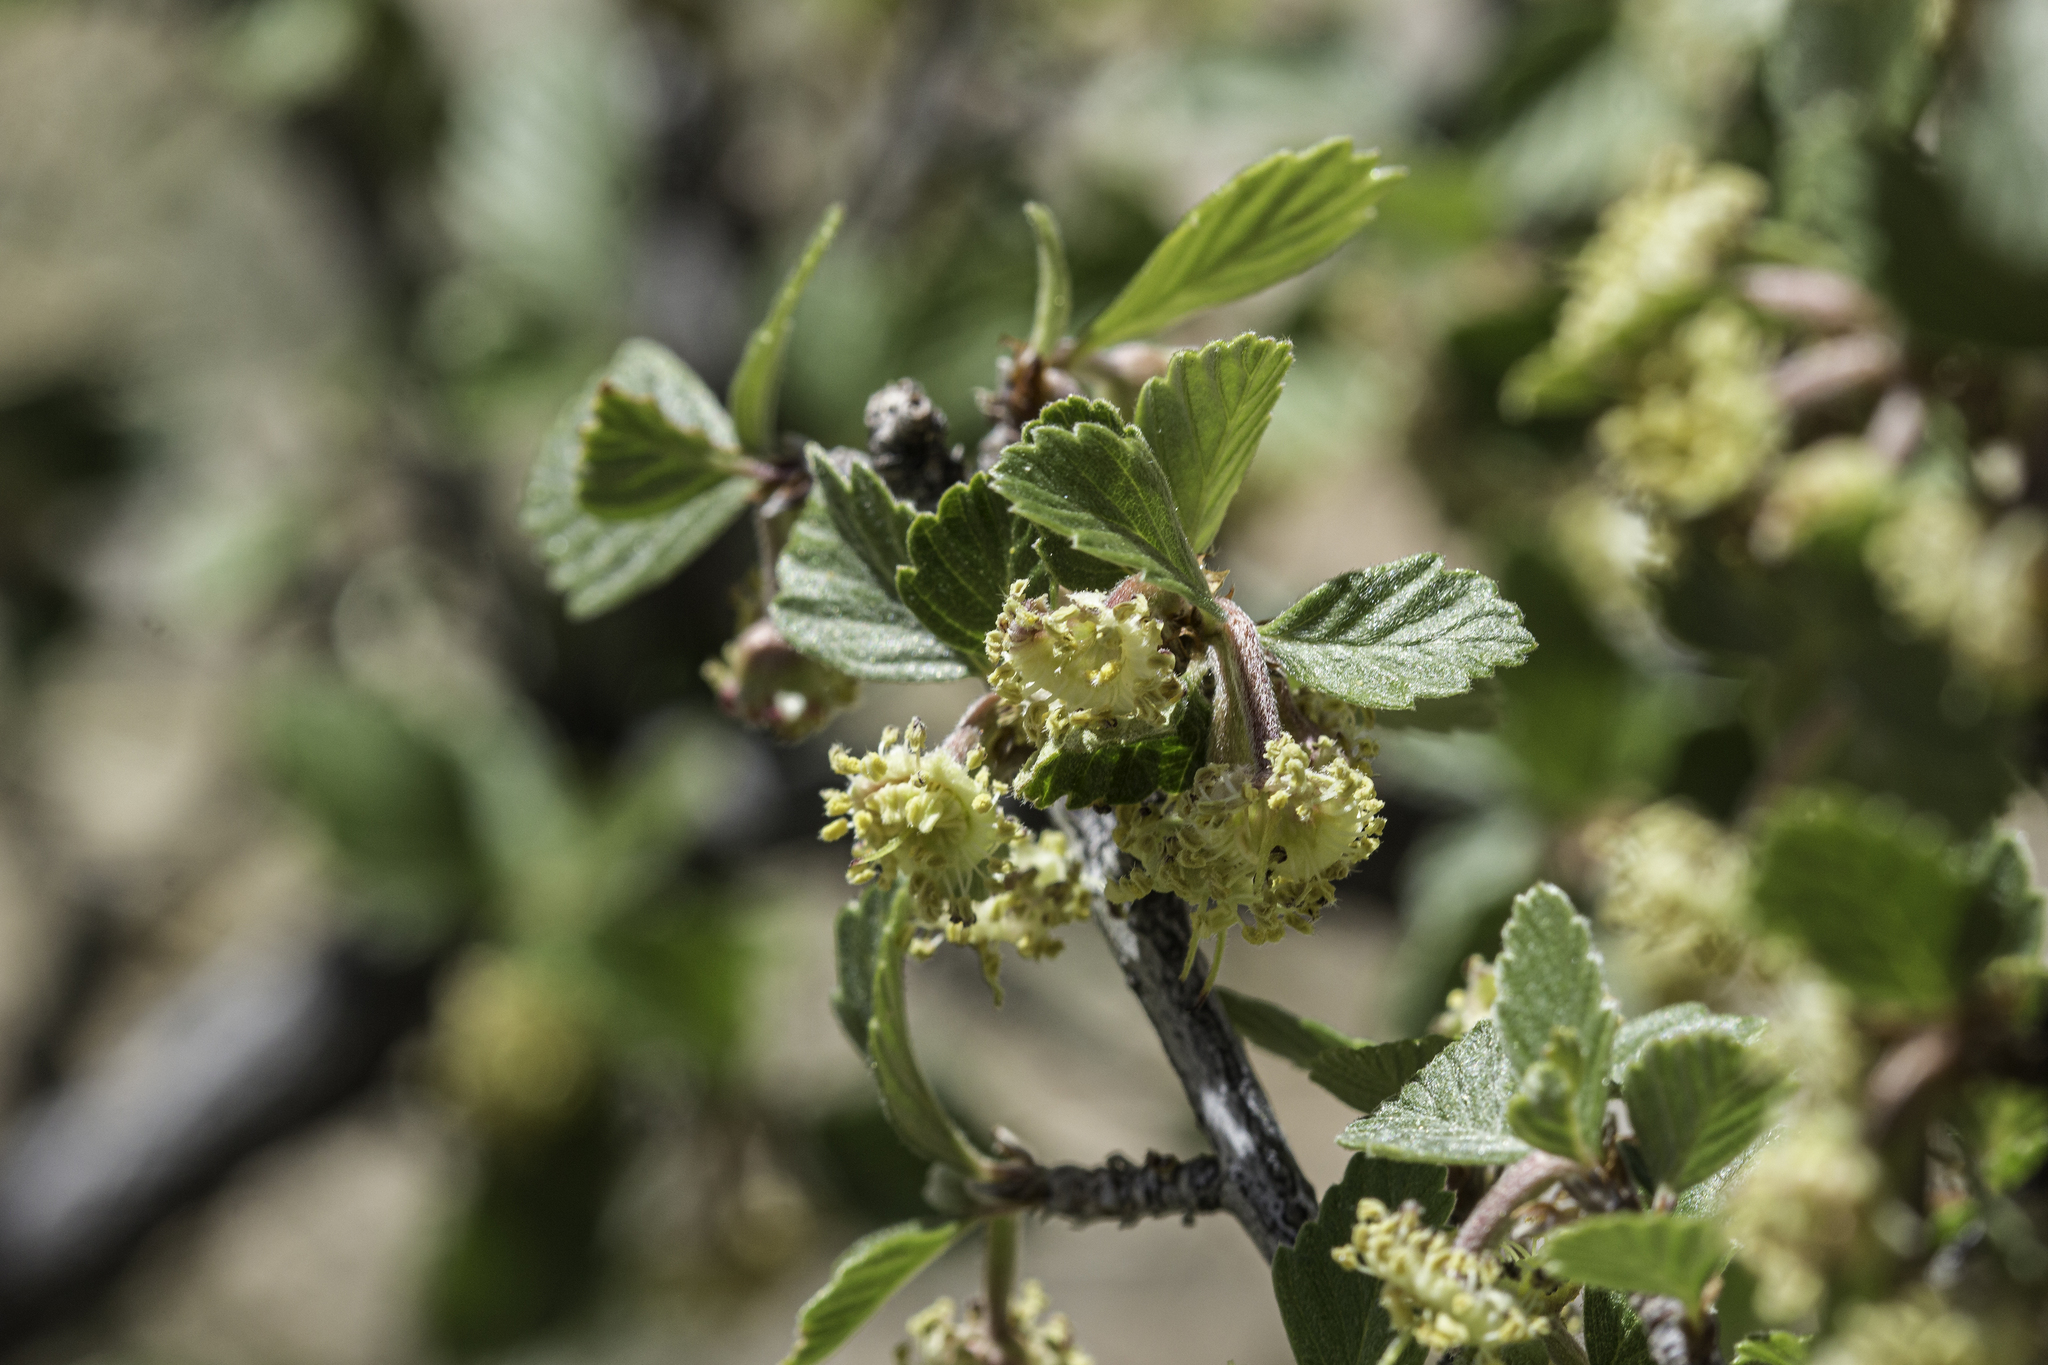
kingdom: Plantae
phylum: Tracheophyta
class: Magnoliopsida
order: Rosales
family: Rosaceae
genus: Cercocarpus
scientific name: Cercocarpus montanus
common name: Alder-leaf cercocarpus
